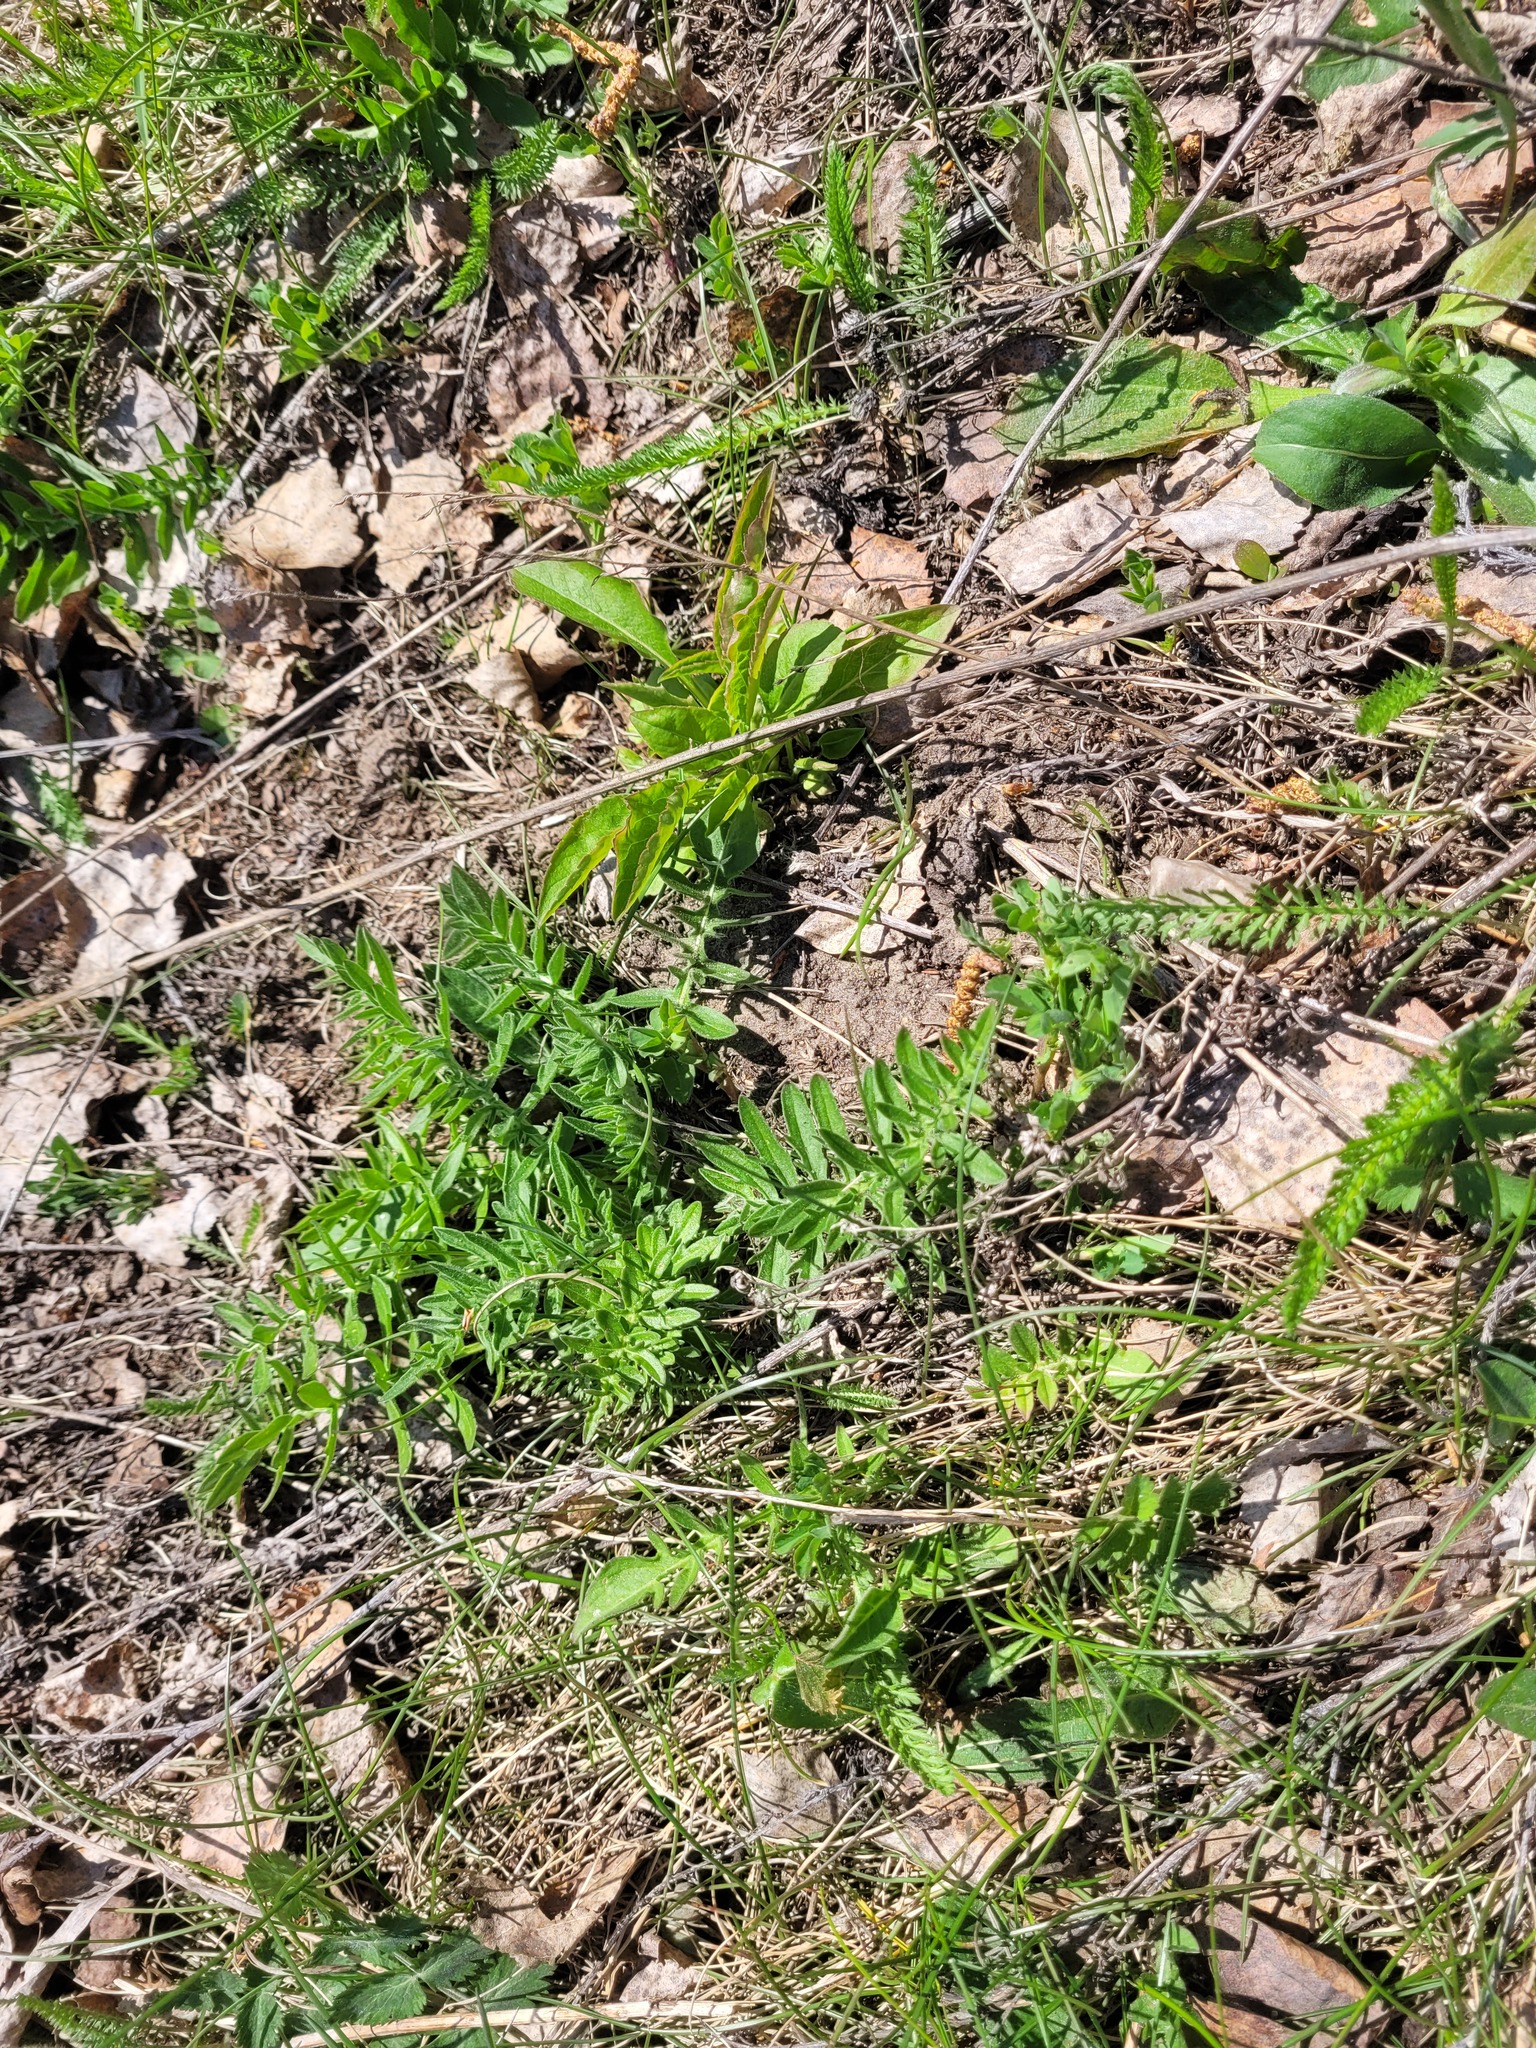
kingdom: Plantae
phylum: Tracheophyta
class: Magnoliopsida
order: Asterales
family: Asteraceae
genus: Centaurea
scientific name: Centaurea scabiosa
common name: Greater knapweed
